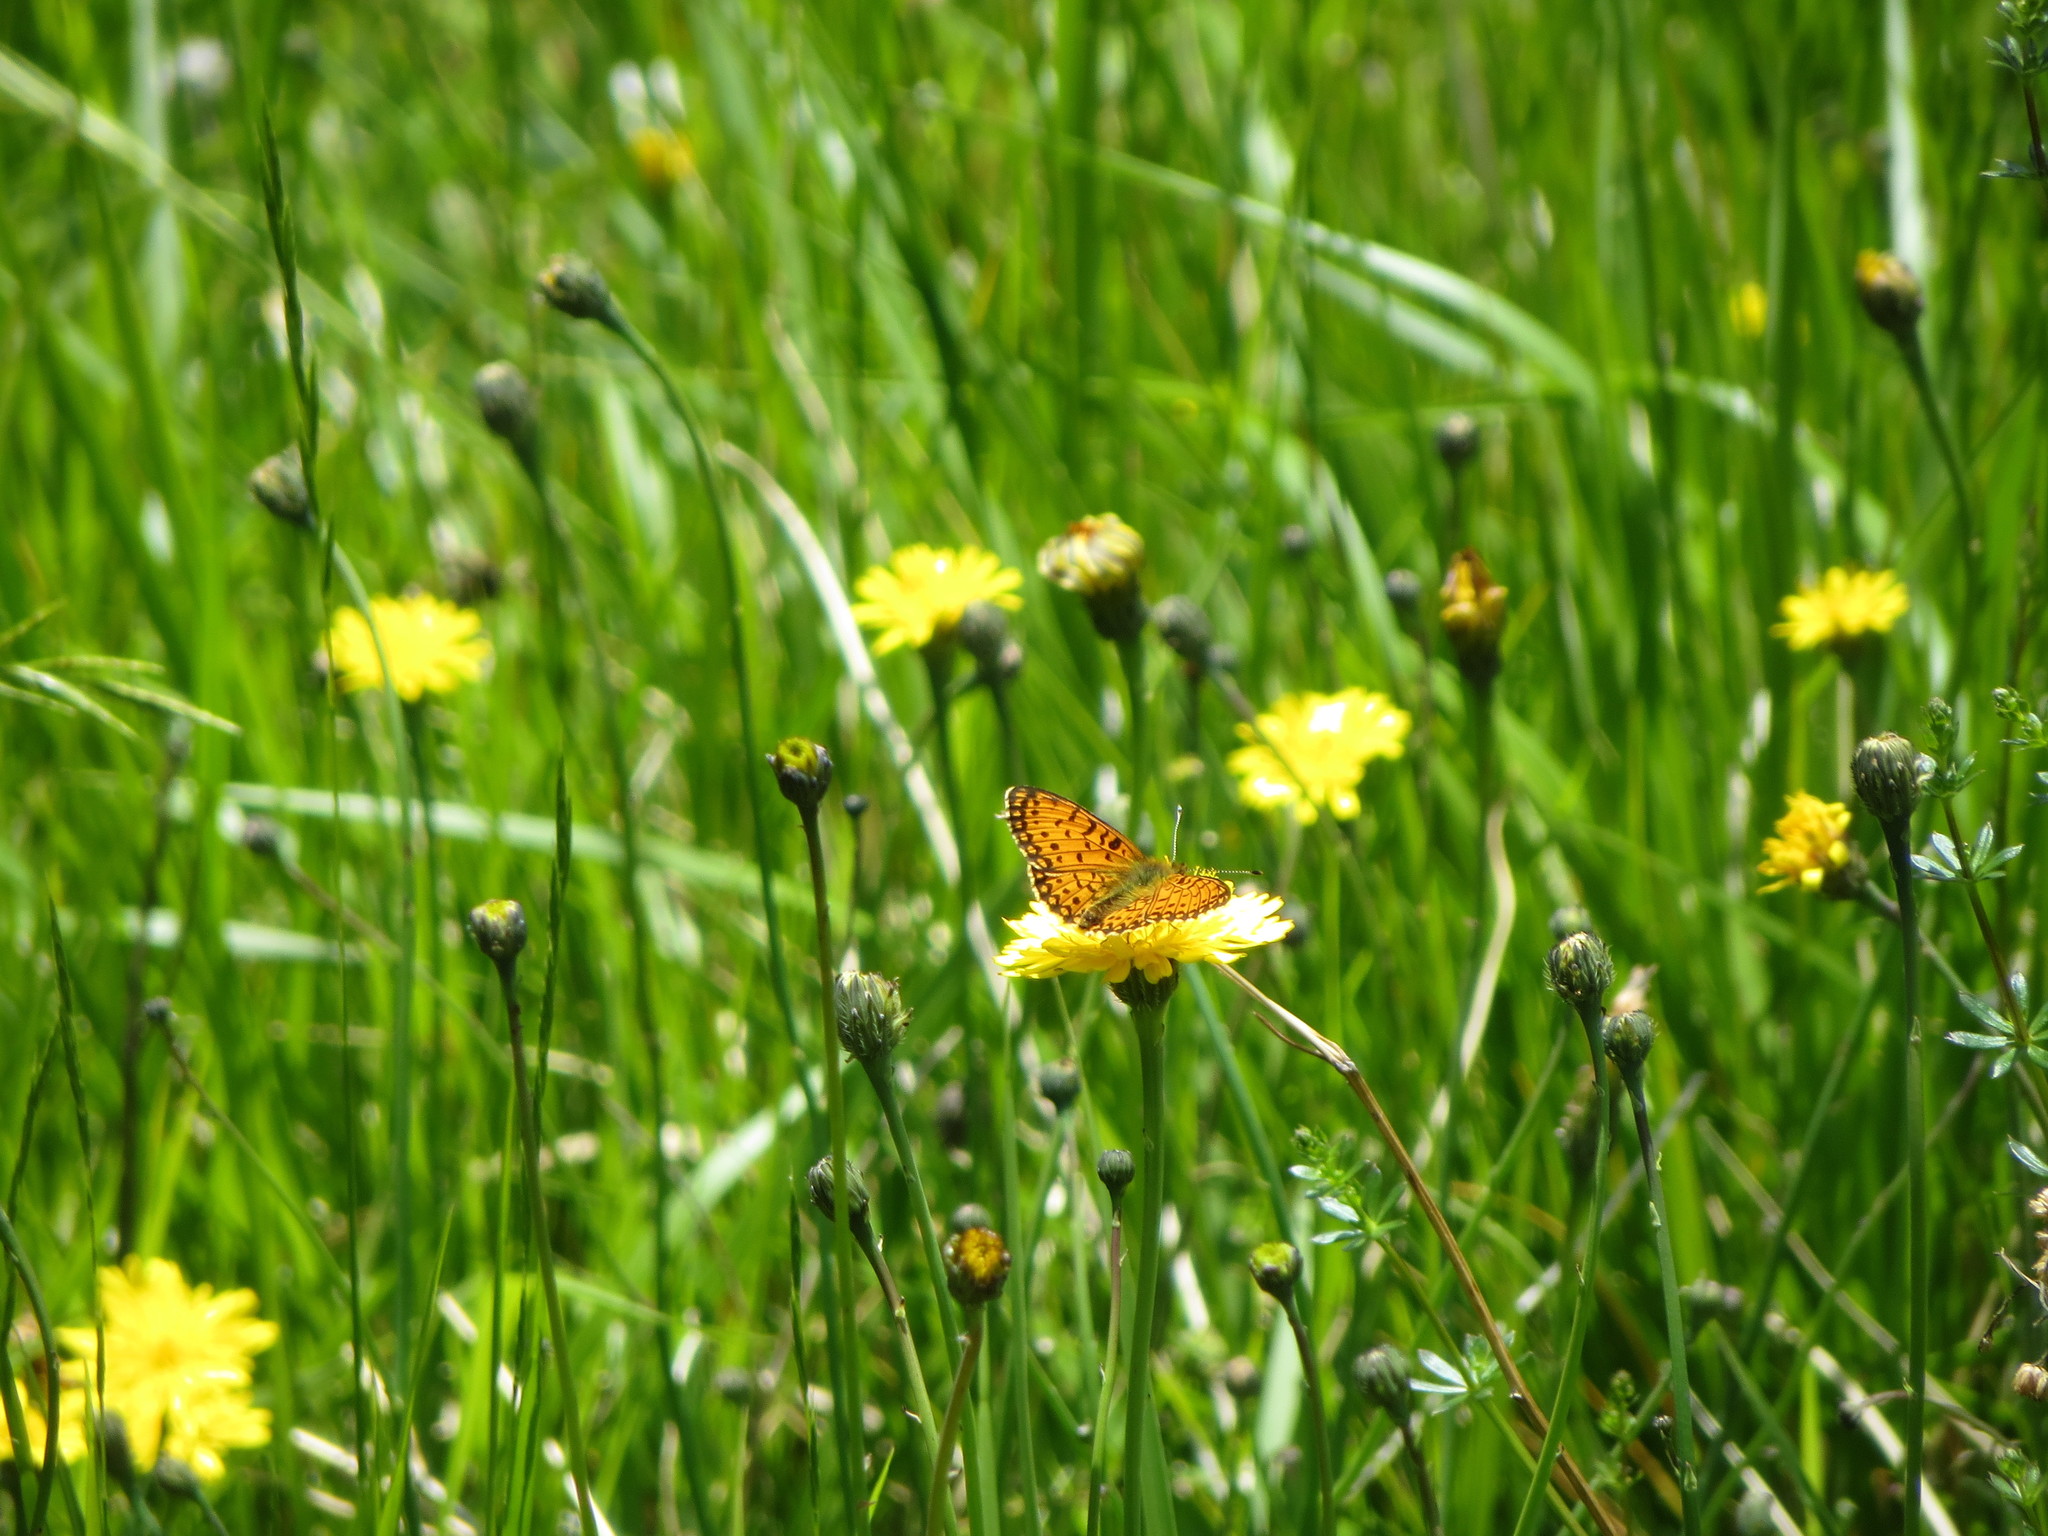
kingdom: Animalia
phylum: Arthropoda
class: Insecta
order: Lepidoptera
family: Nymphalidae
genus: Boloria
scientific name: Boloria selene
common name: Small pearl-bordered fritillary
